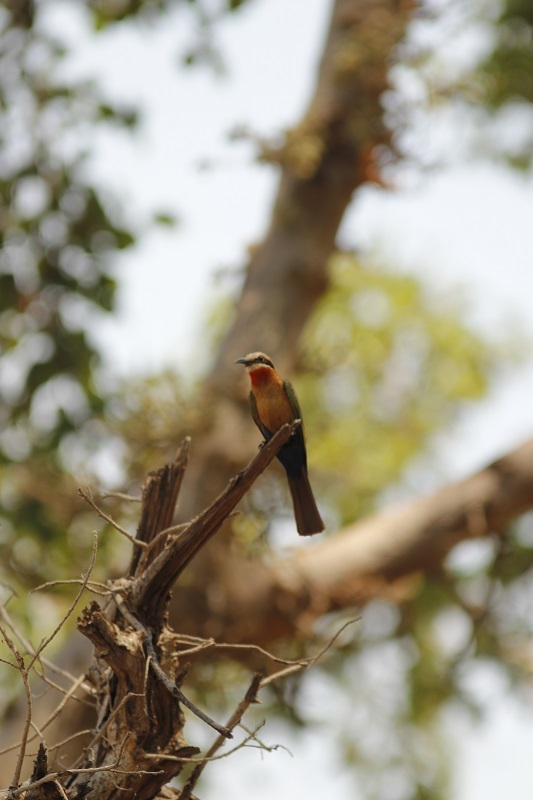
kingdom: Animalia
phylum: Chordata
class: Aves
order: Coraciiformes
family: Meropidae
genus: Merops
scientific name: Merops bullockoides
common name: White-fronted bee-eater
